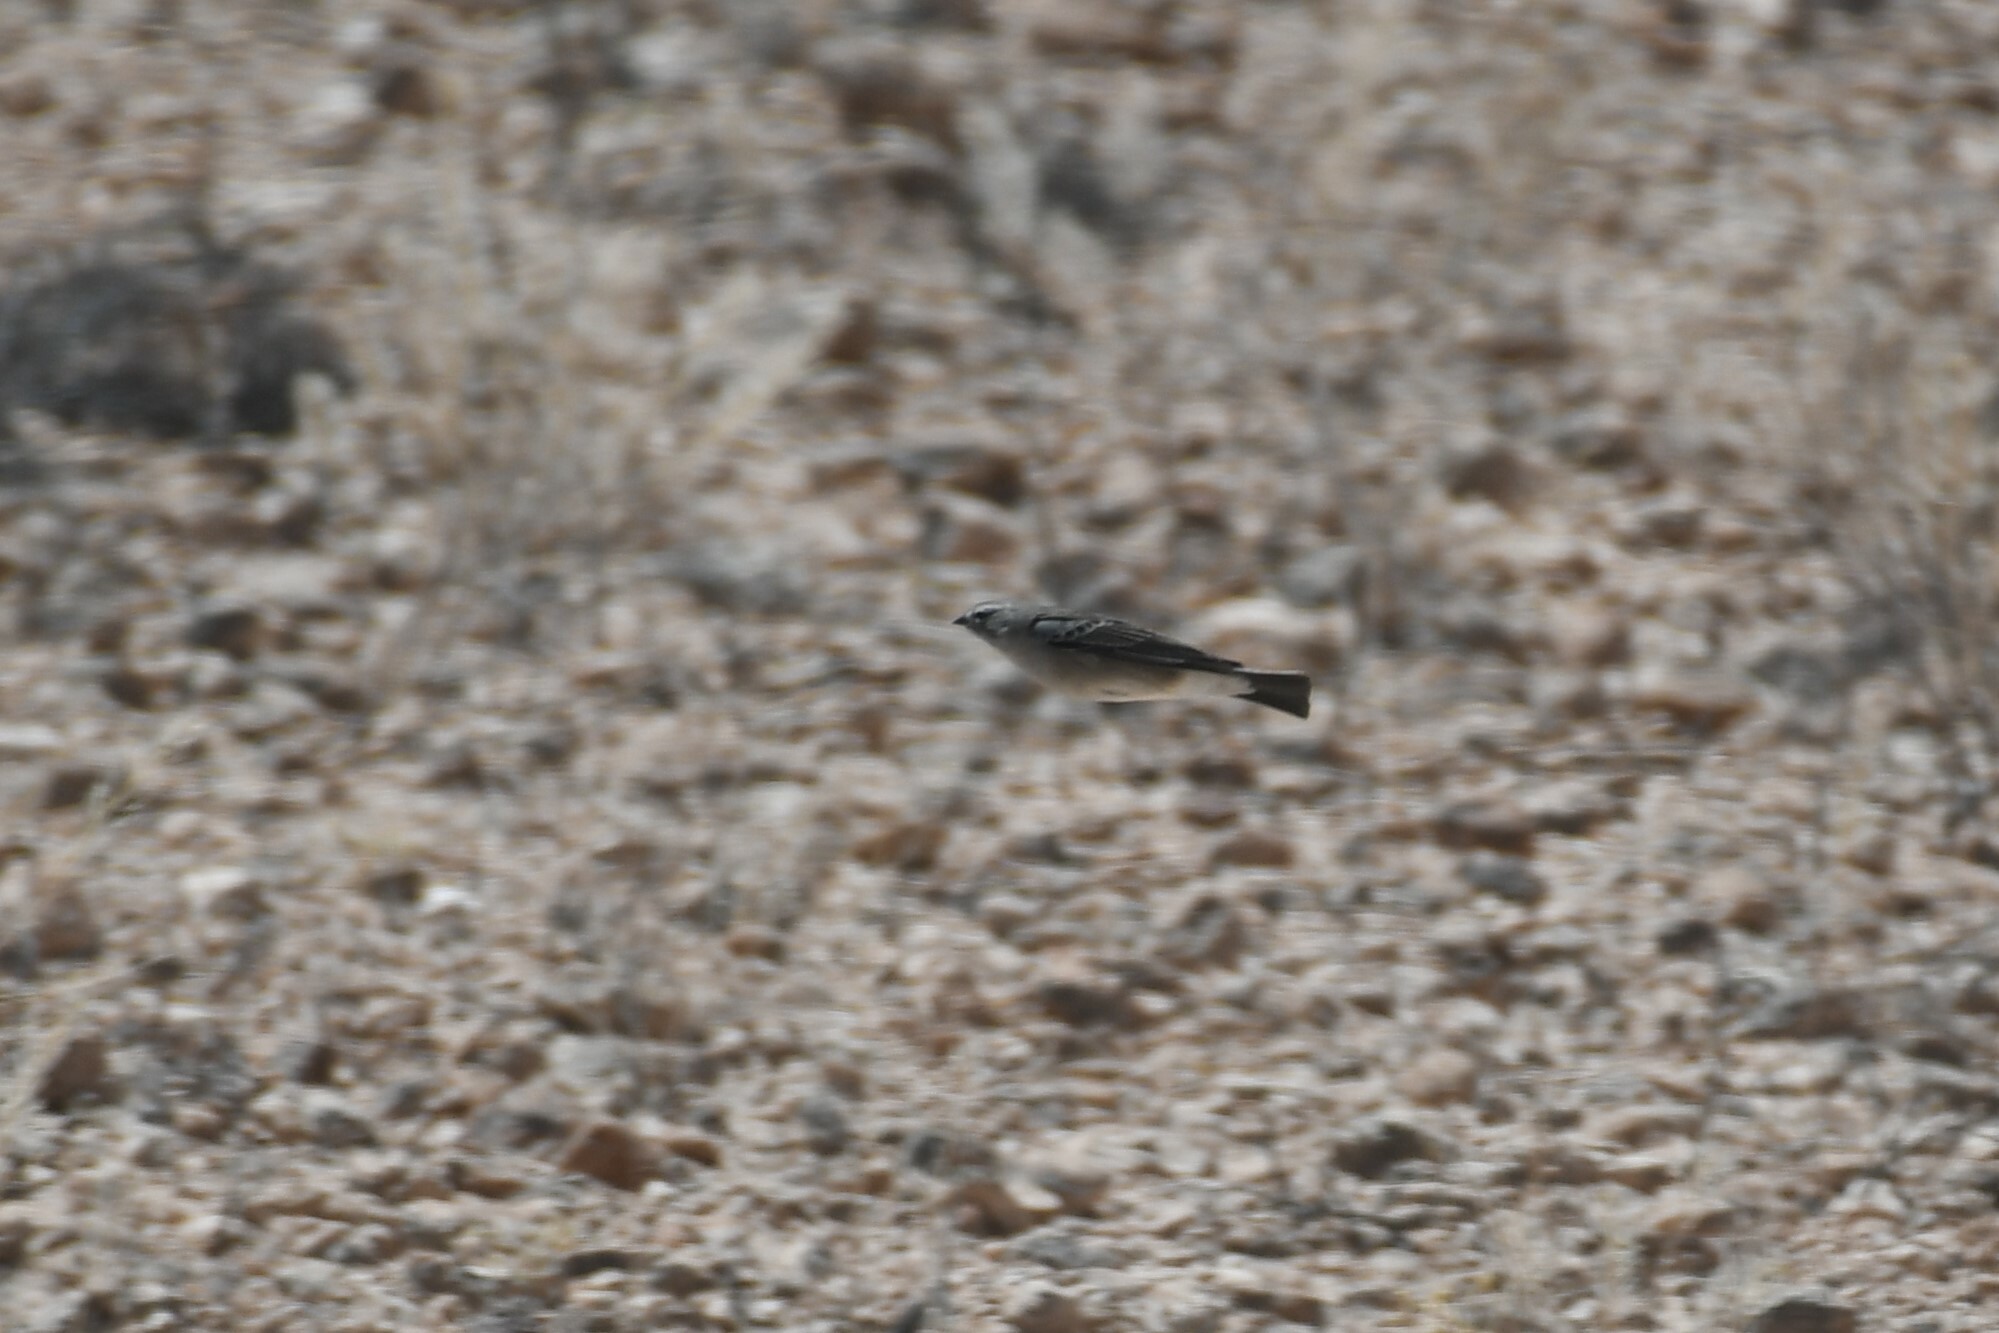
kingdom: Animalia
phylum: Chordata
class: Aves
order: Passeriformes
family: Thraupidae
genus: Geospizopsis
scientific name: Geospizopsis plebejus
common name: Ash-breasted sierra-finch
